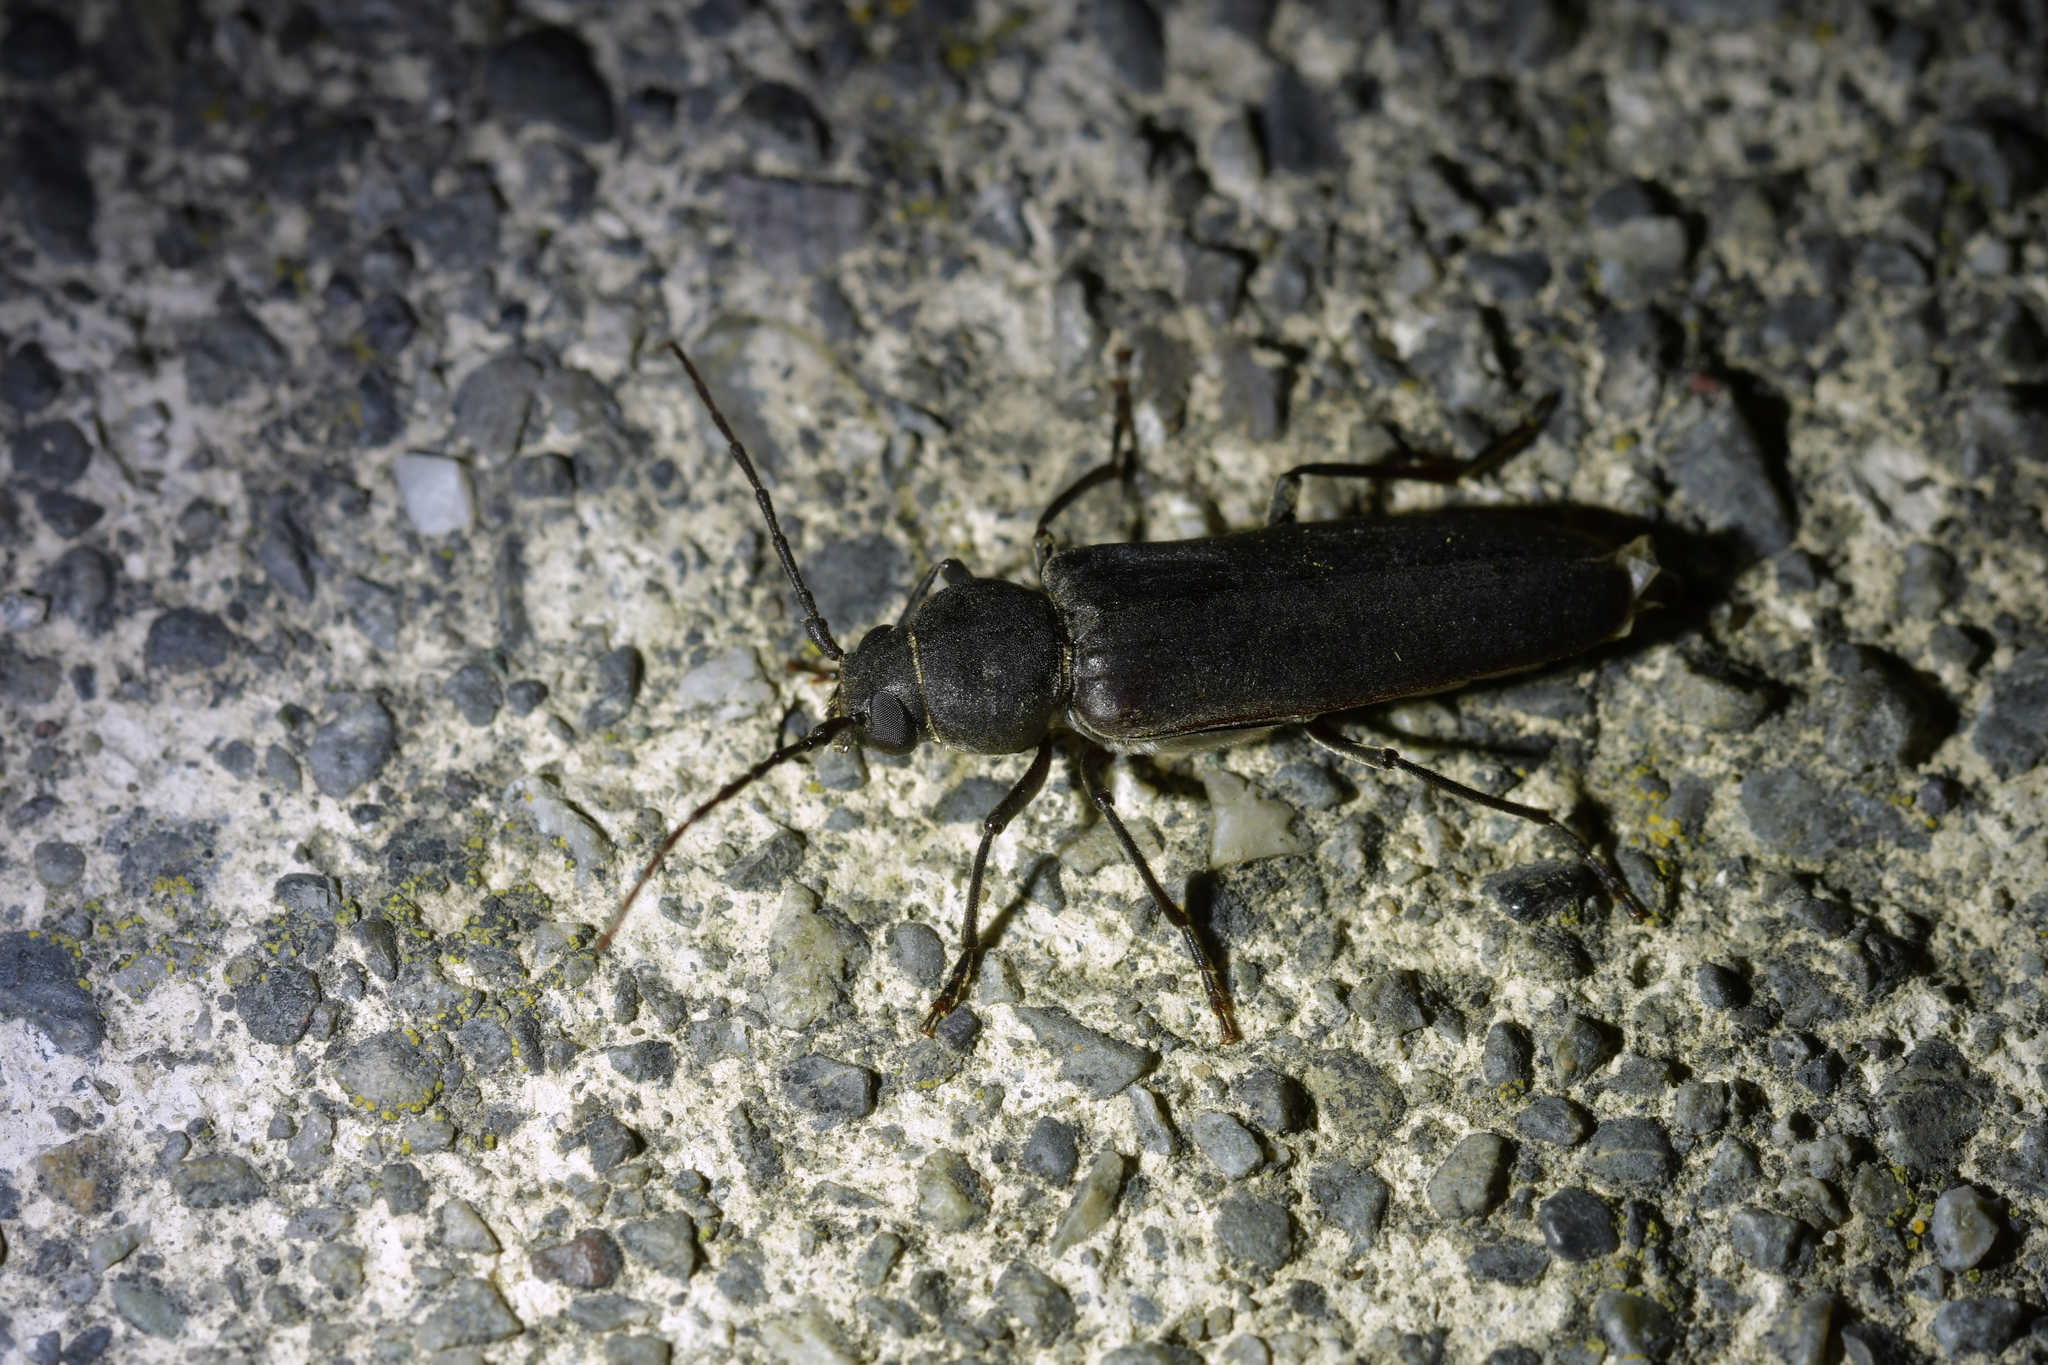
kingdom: Animalia
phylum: Arthropoda
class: Insecta
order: Coleoptera
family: Cerambycidae
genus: Arhopalus
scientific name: Arhopalus ferus
